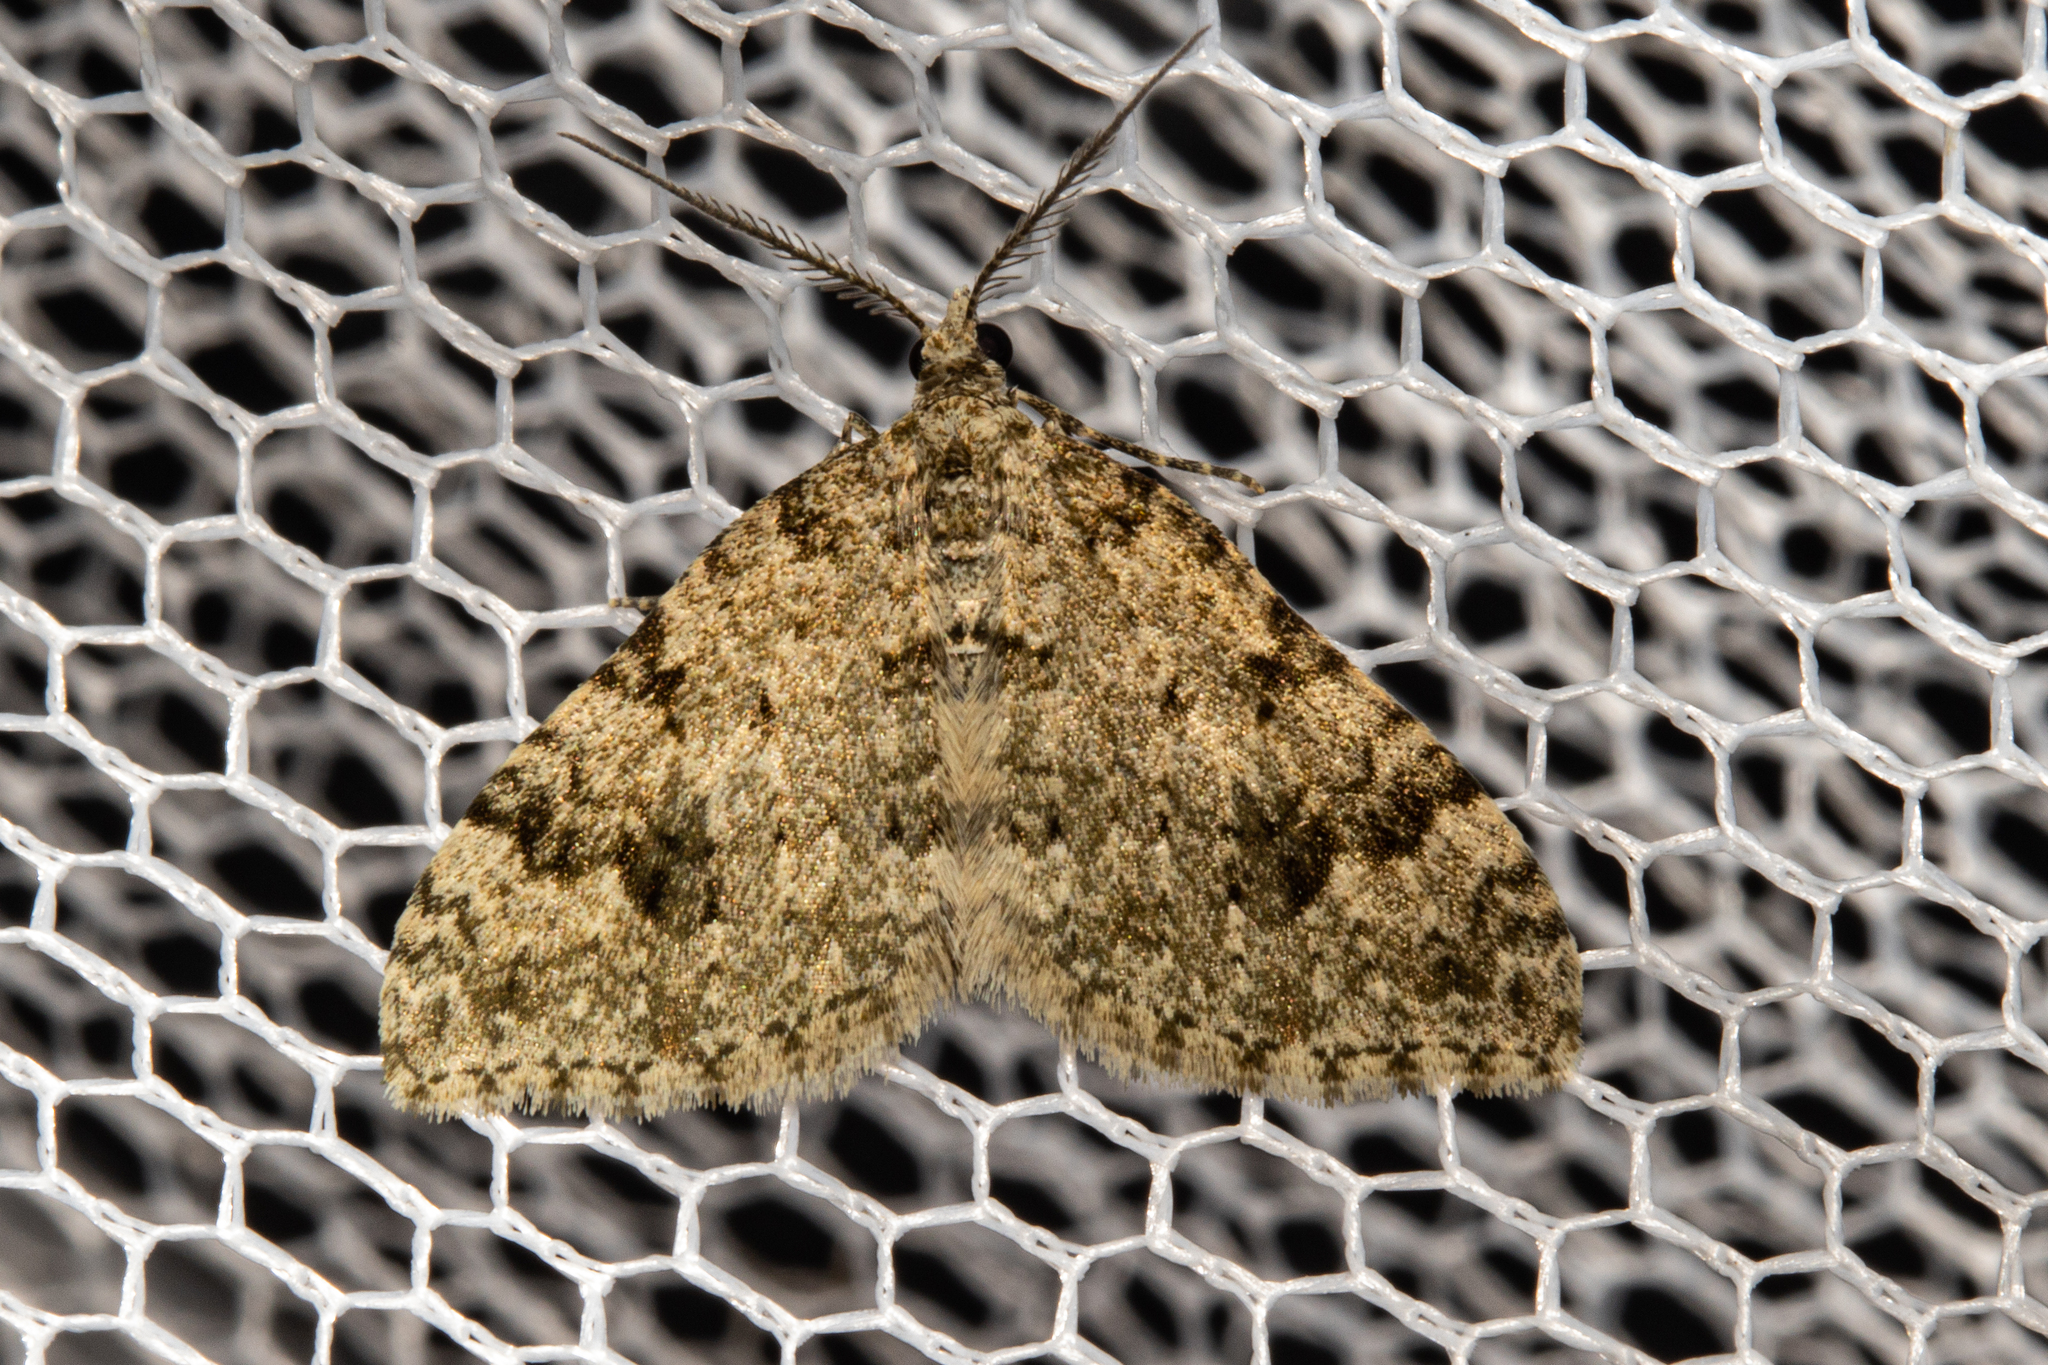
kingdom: Animalia
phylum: Arthropoda
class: Insecta
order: Lepidoptera
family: Geometridae
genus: Helastia
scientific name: Helastia cinerearia
